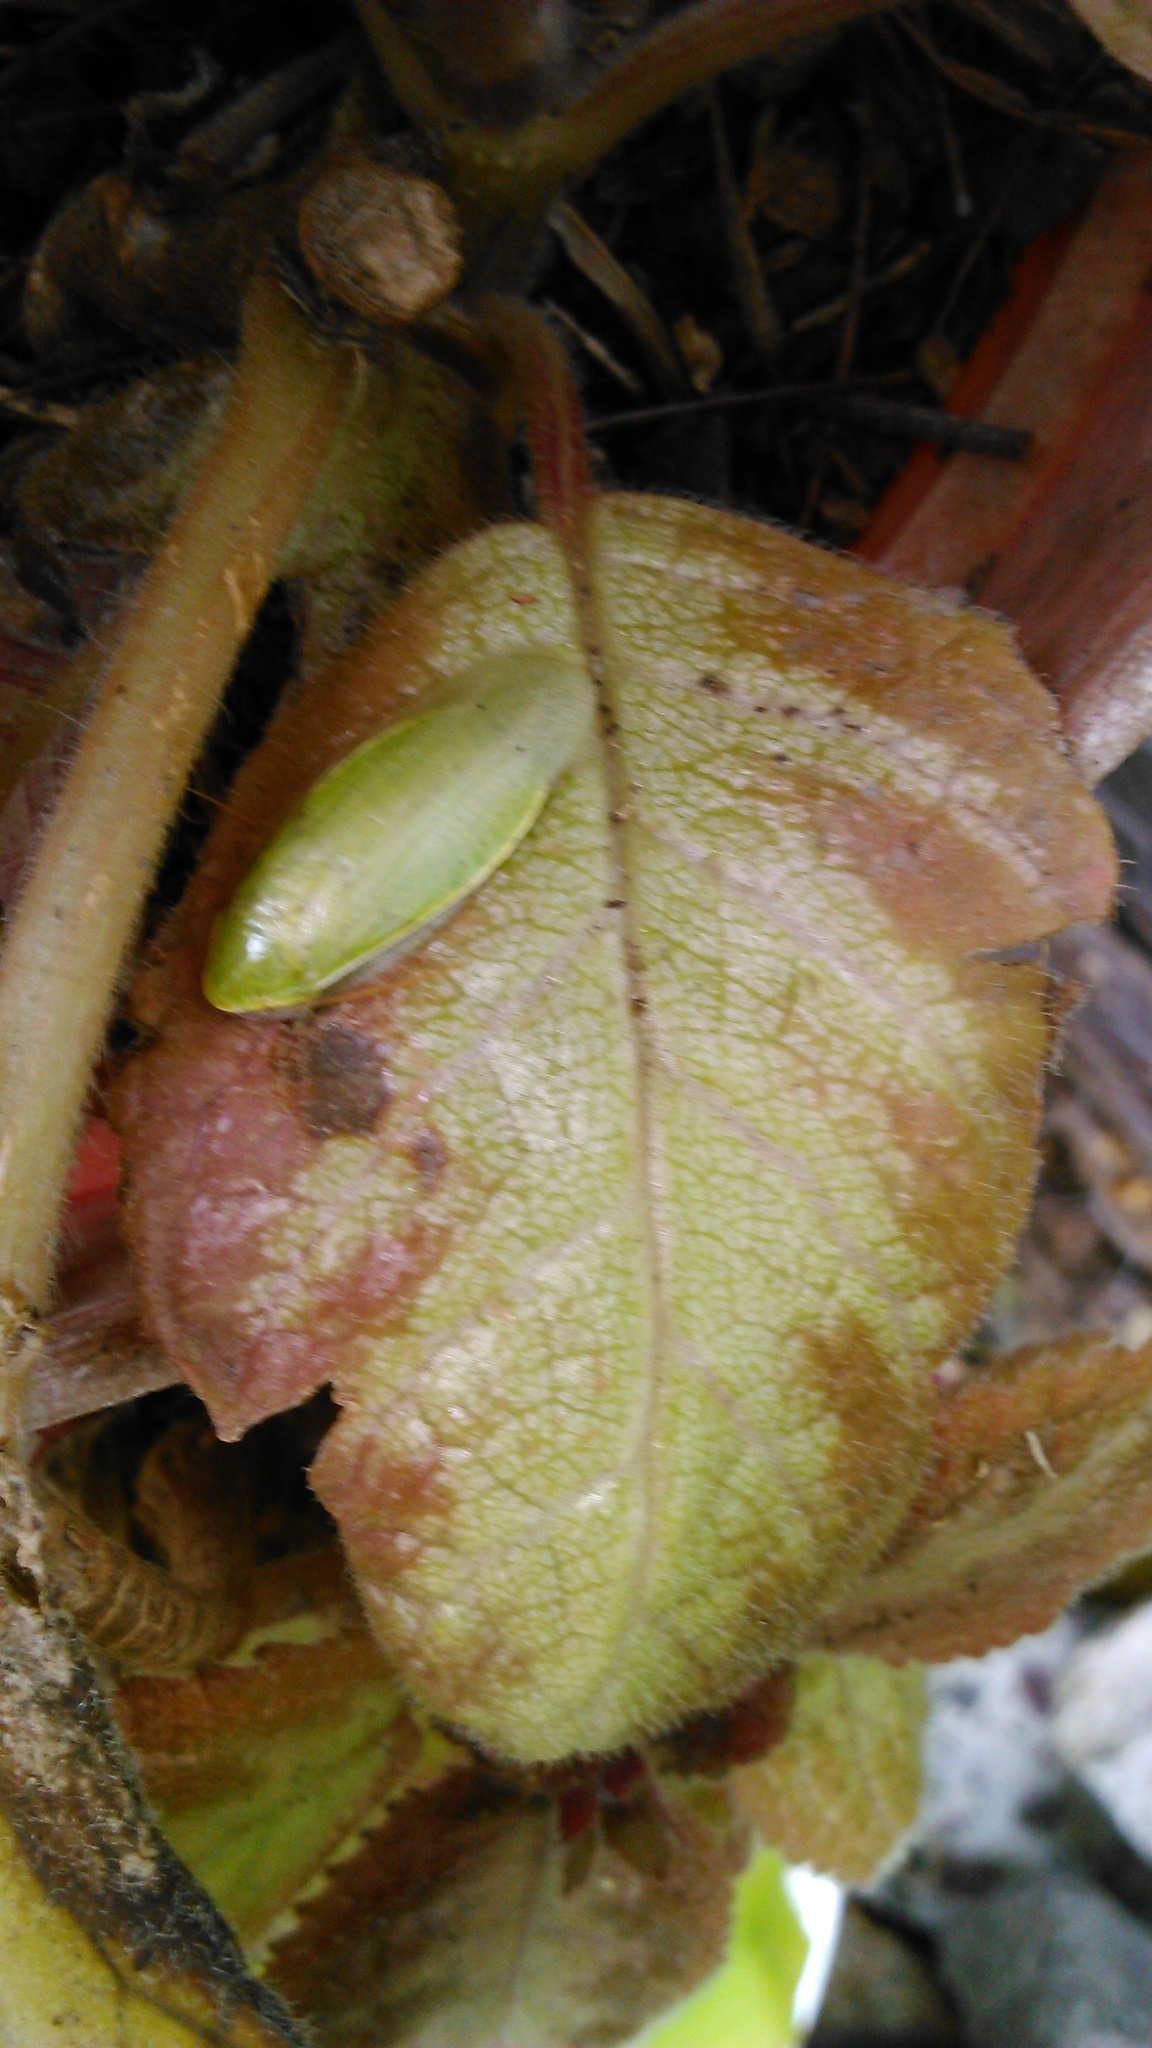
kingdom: Animalia
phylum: Arthropoda
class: Insecta
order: Blattodea
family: Blaberidae
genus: Panchlora
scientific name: Panchlora nivea
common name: Cuban cockroach
